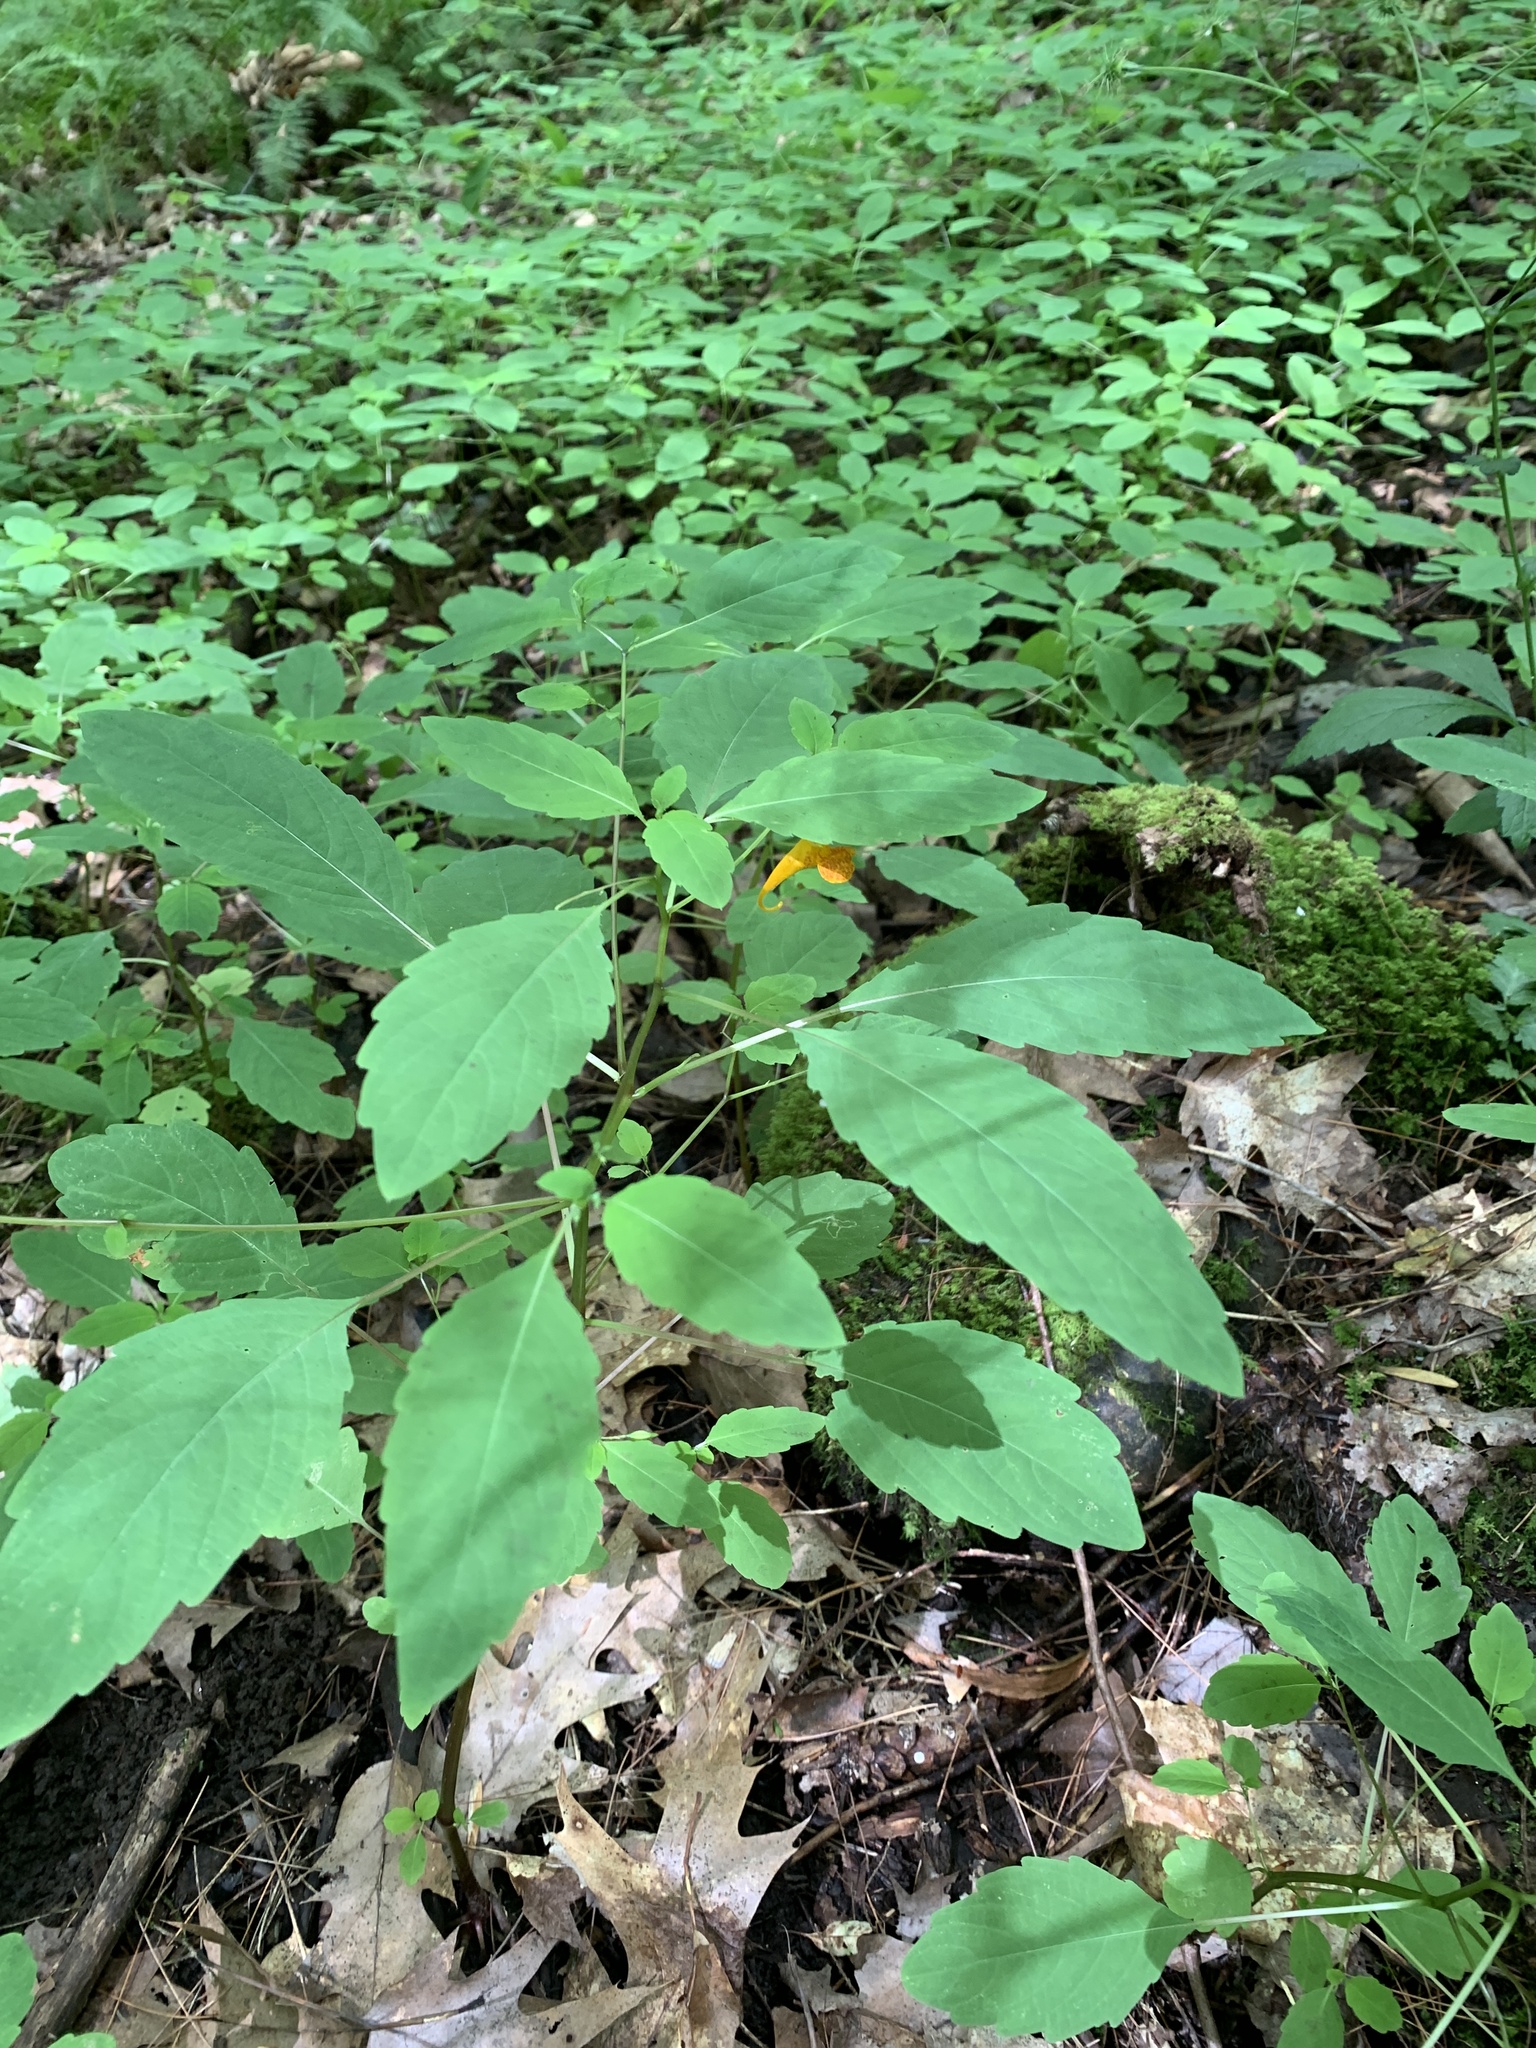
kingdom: Plantae
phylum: Tracheophyta
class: Magnoliopsida
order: Ericales
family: Balsaminaceae
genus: Impatiens
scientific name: Impatiens capensis
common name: Orange balsam
